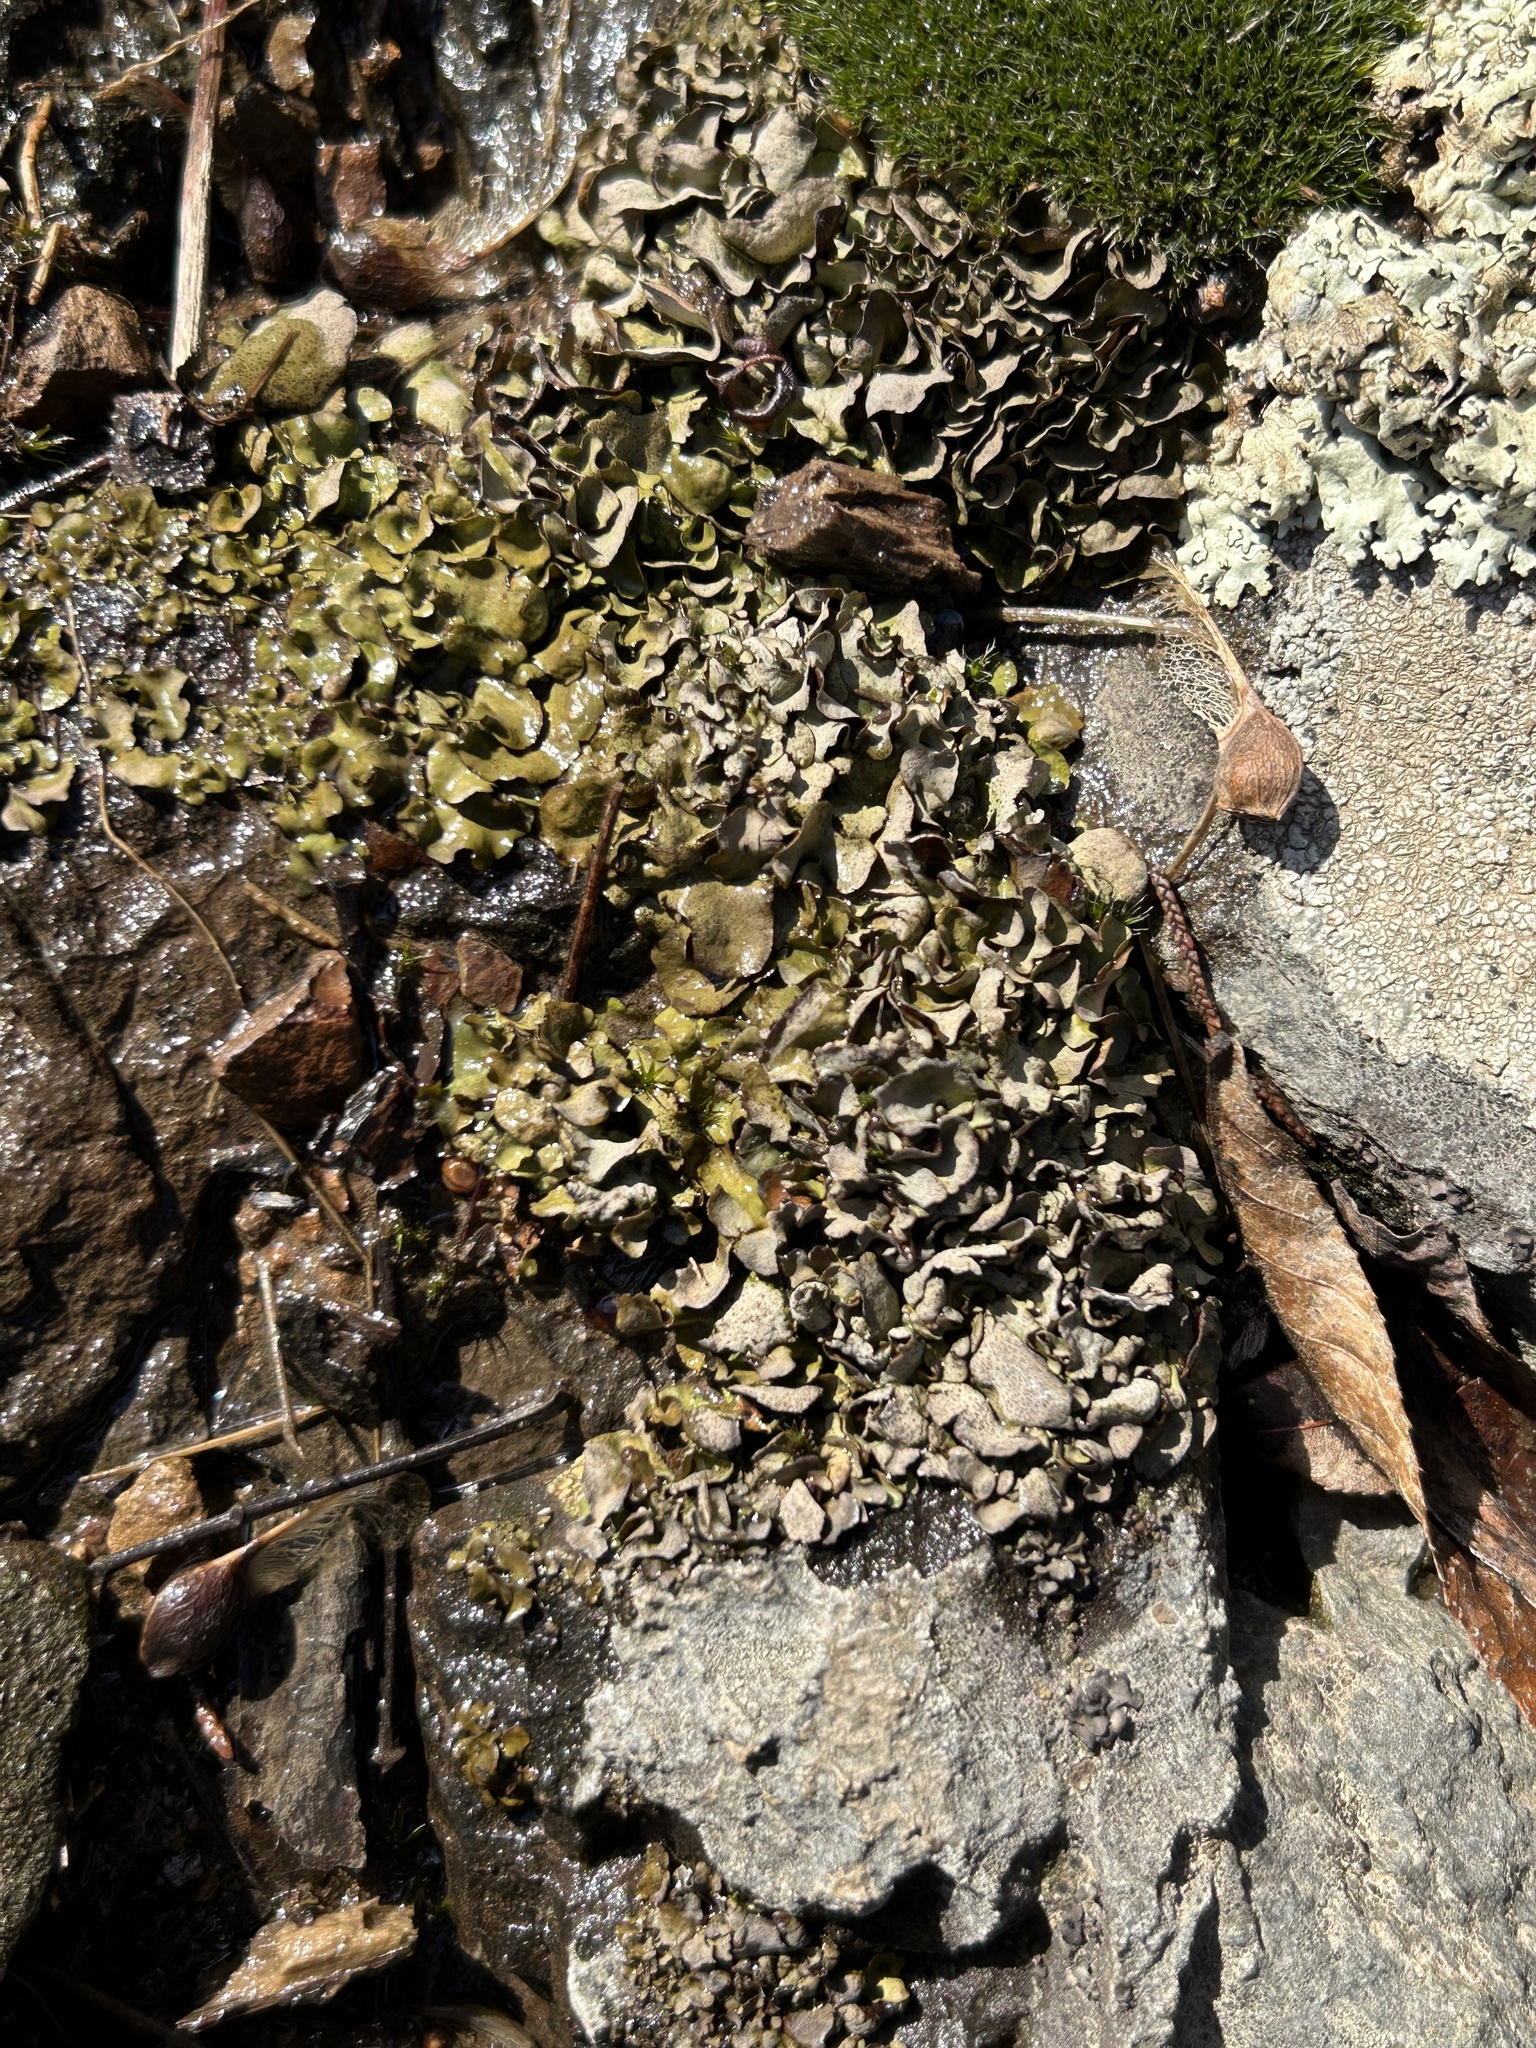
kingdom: Fungi
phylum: Ascomycota
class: Eurotiomycetes
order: Verrucariales
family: Verrucariaceae
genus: Dermatocarpon
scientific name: Dermatocarpon luridum
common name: Brook stippleback lichen
